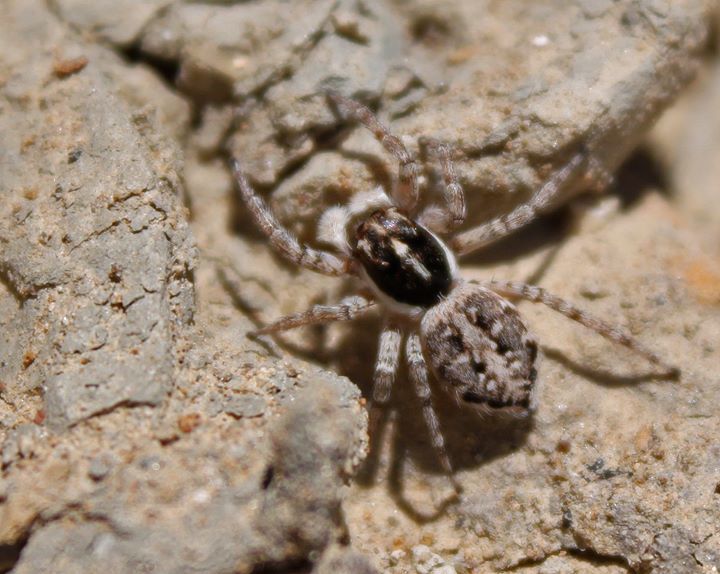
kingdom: Animalia
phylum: Arthropoda
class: Arachnida
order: Araneae
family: Salticidae
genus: Menemerus
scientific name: Menemerus semilimbatus
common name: Jumping spider
